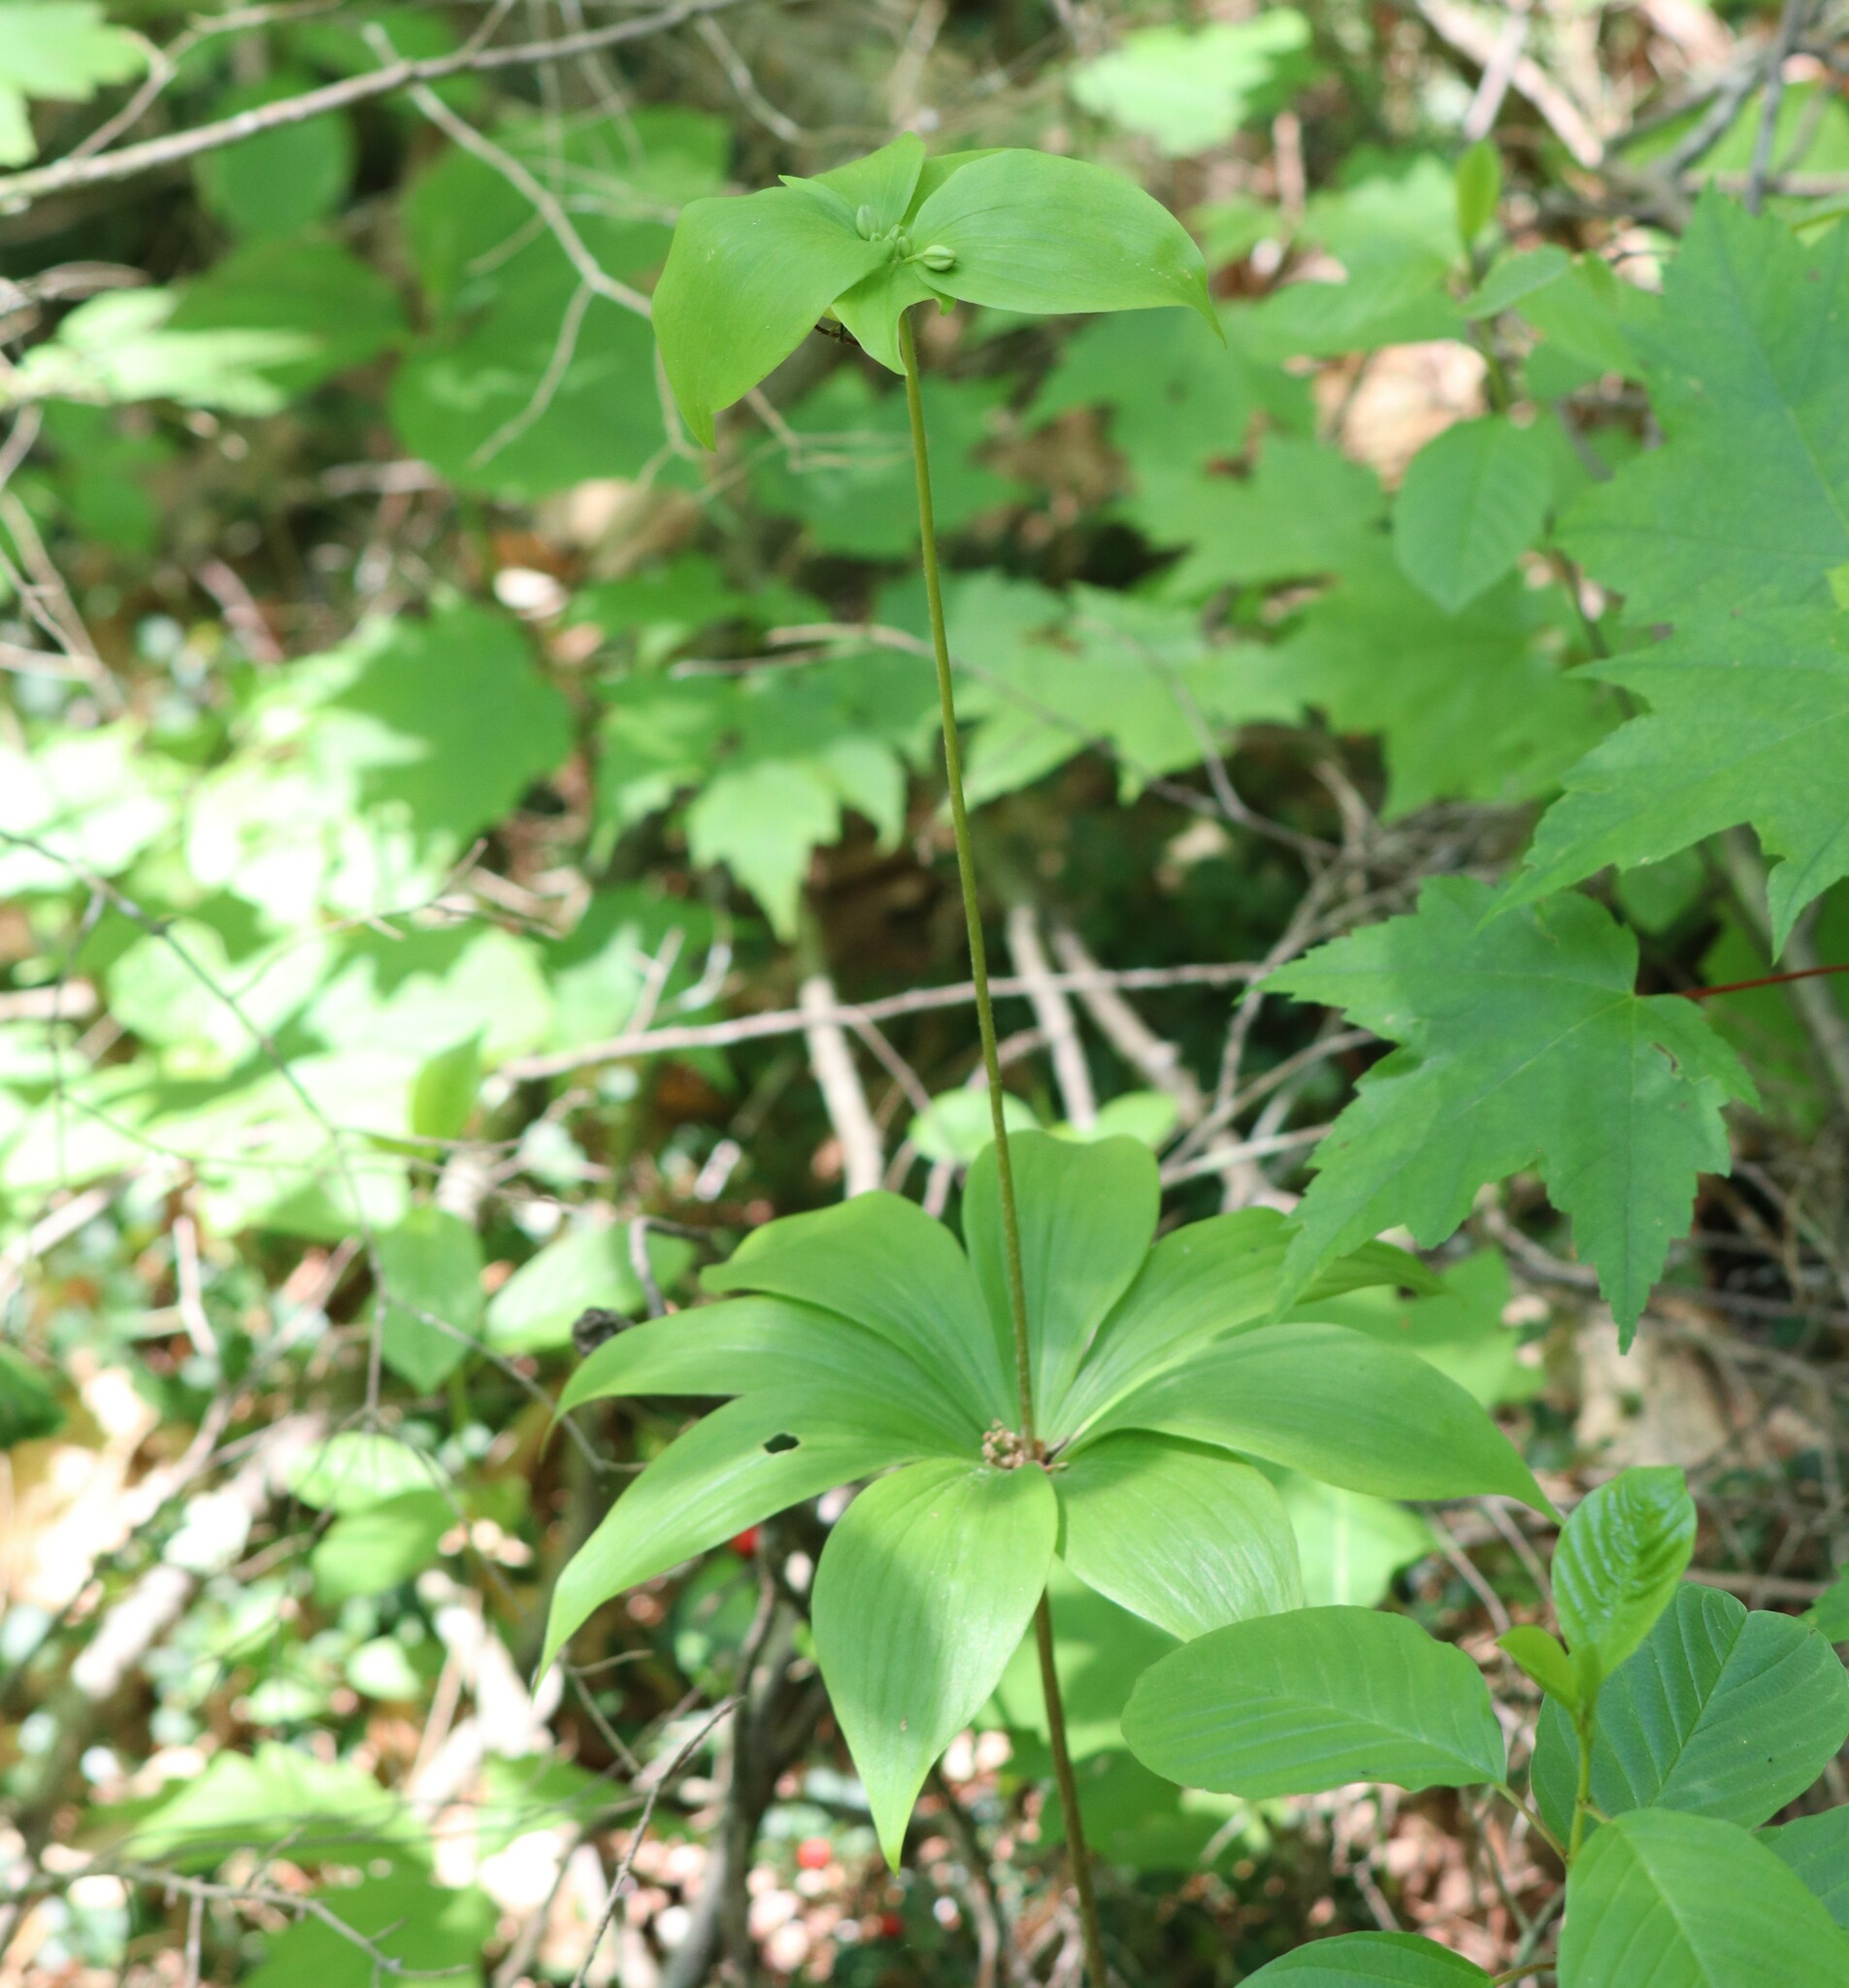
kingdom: Plantae
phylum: Tracheophyta
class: Liliopsida
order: Liliales
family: Liliaceae
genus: Medeola
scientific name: Medeola virginiana
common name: Indian cucumber-root
